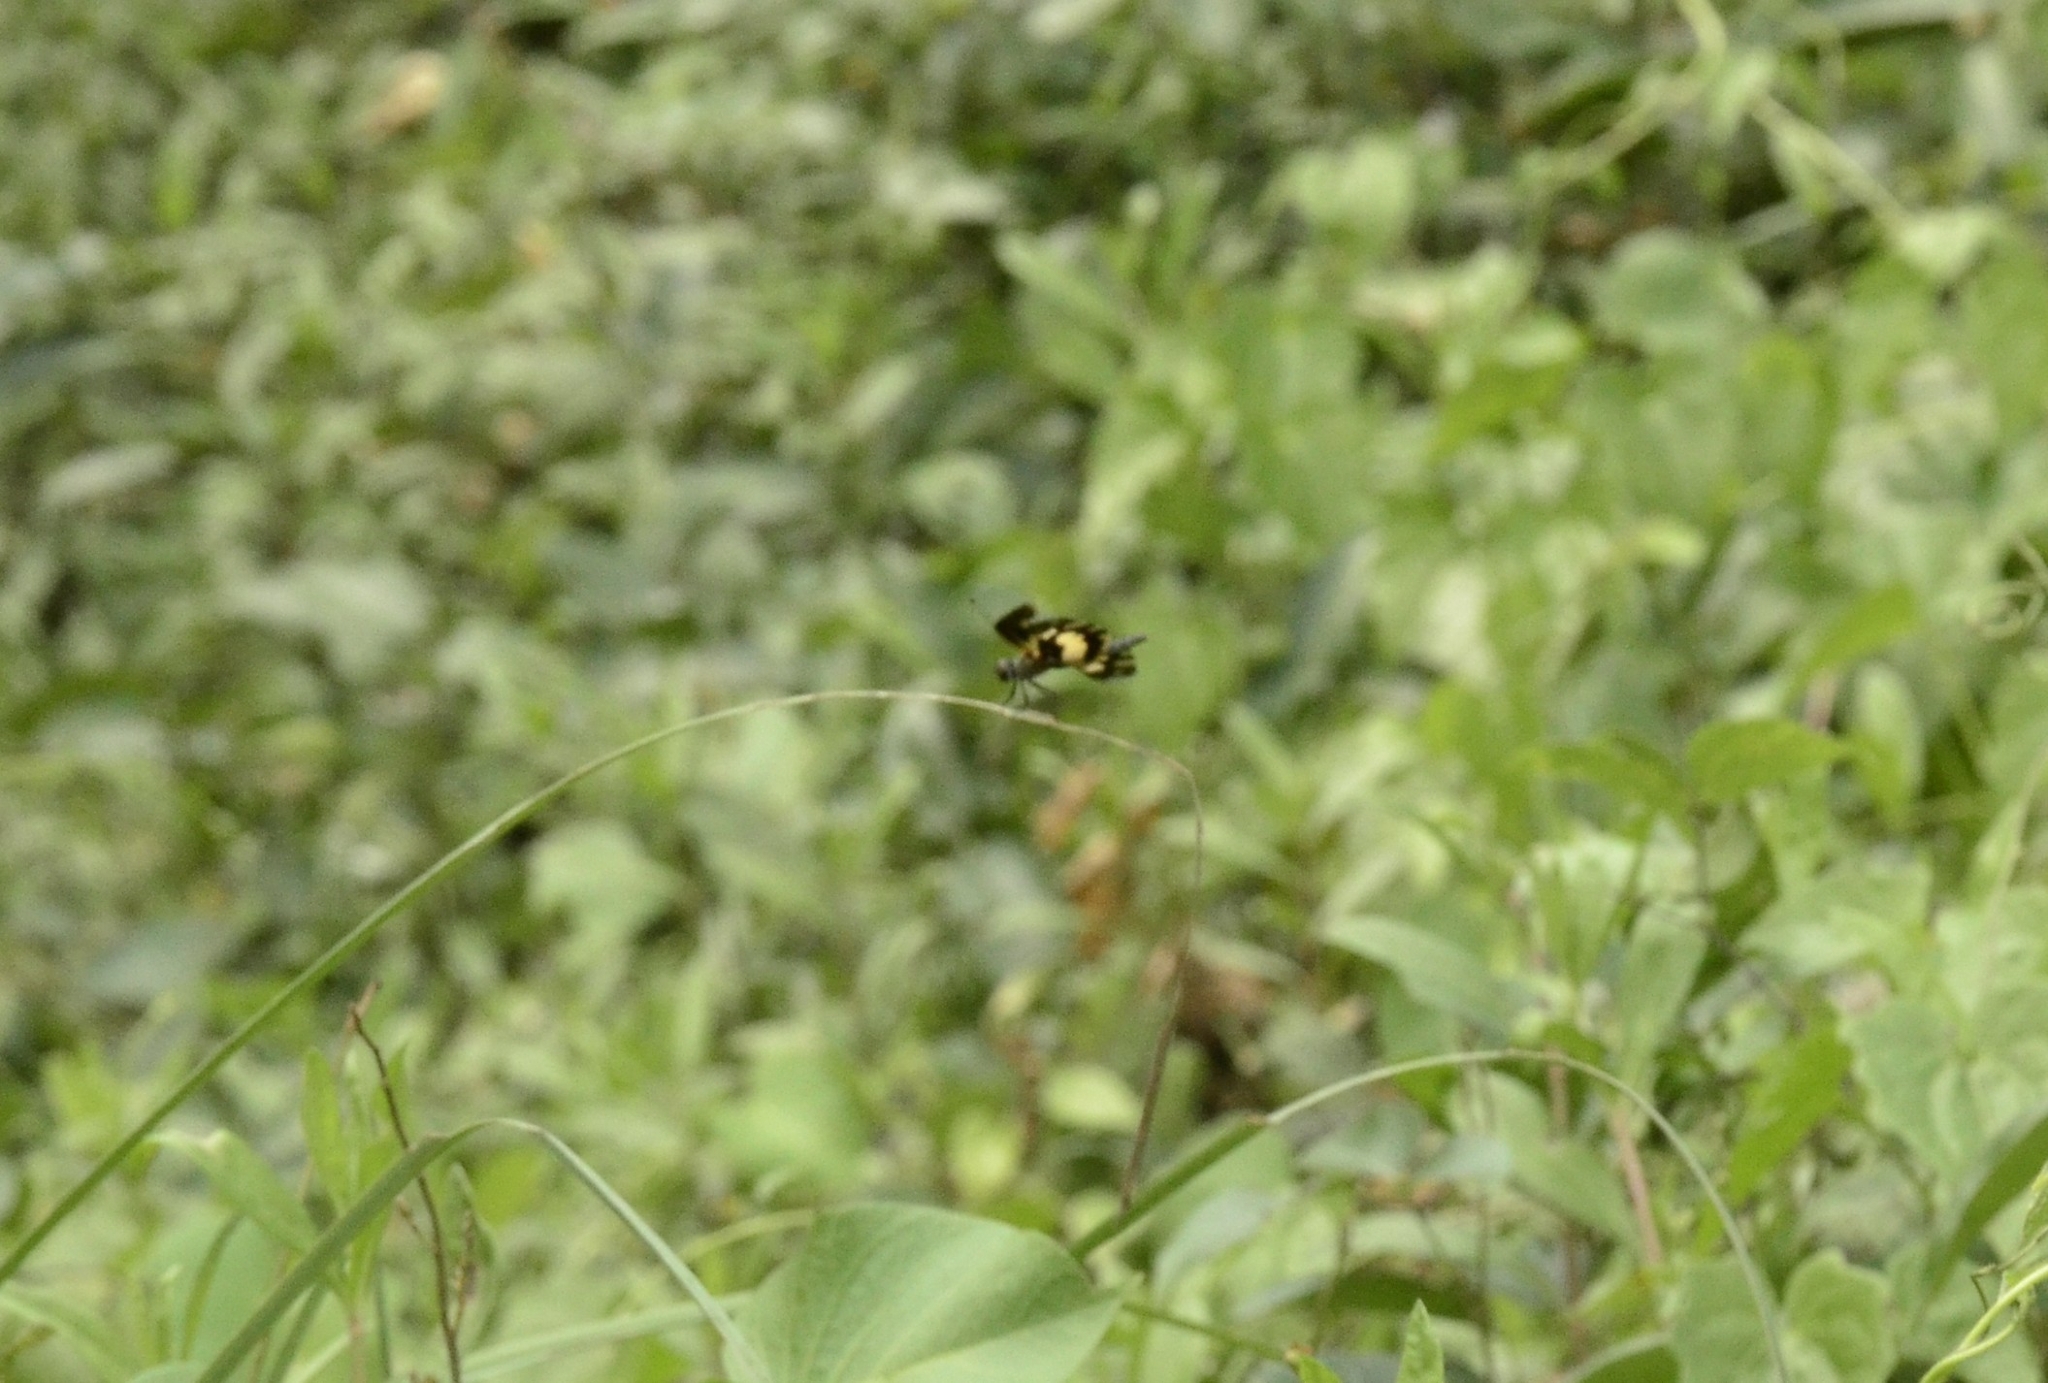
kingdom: Animalia
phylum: Arthropoda
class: Insecta
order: Odonata
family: Libellulidae
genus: Rhyothemis
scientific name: Rhyothemis variegata
